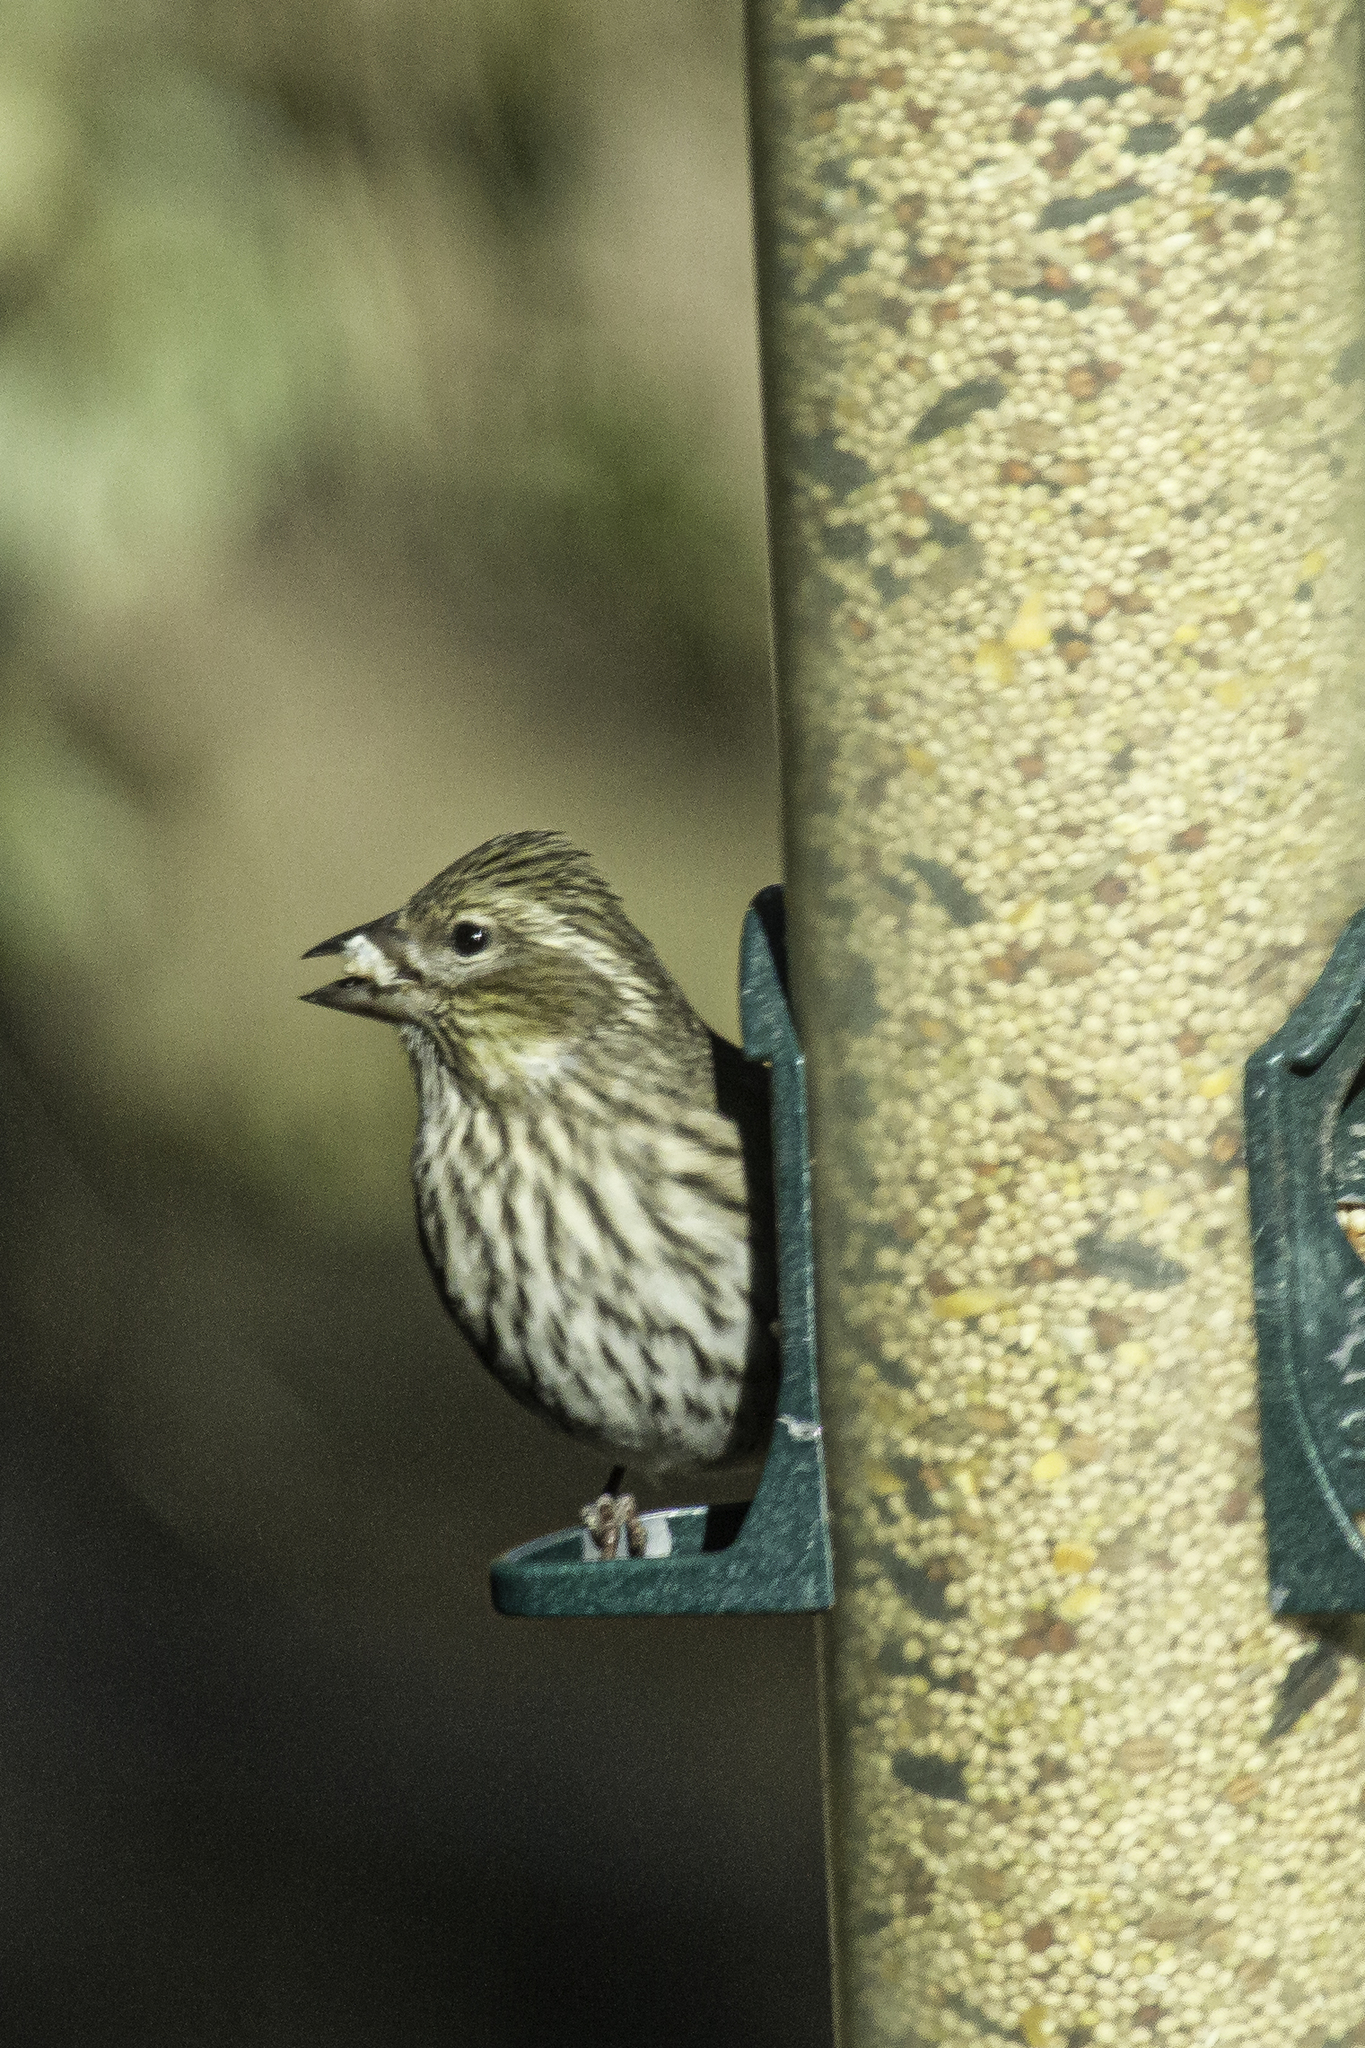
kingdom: Animalia
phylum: Chordata
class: Aves
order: Passeriformes
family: Fringillidae
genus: Haemorhous
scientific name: Haemorhous cassinii
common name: Cassin's finch
